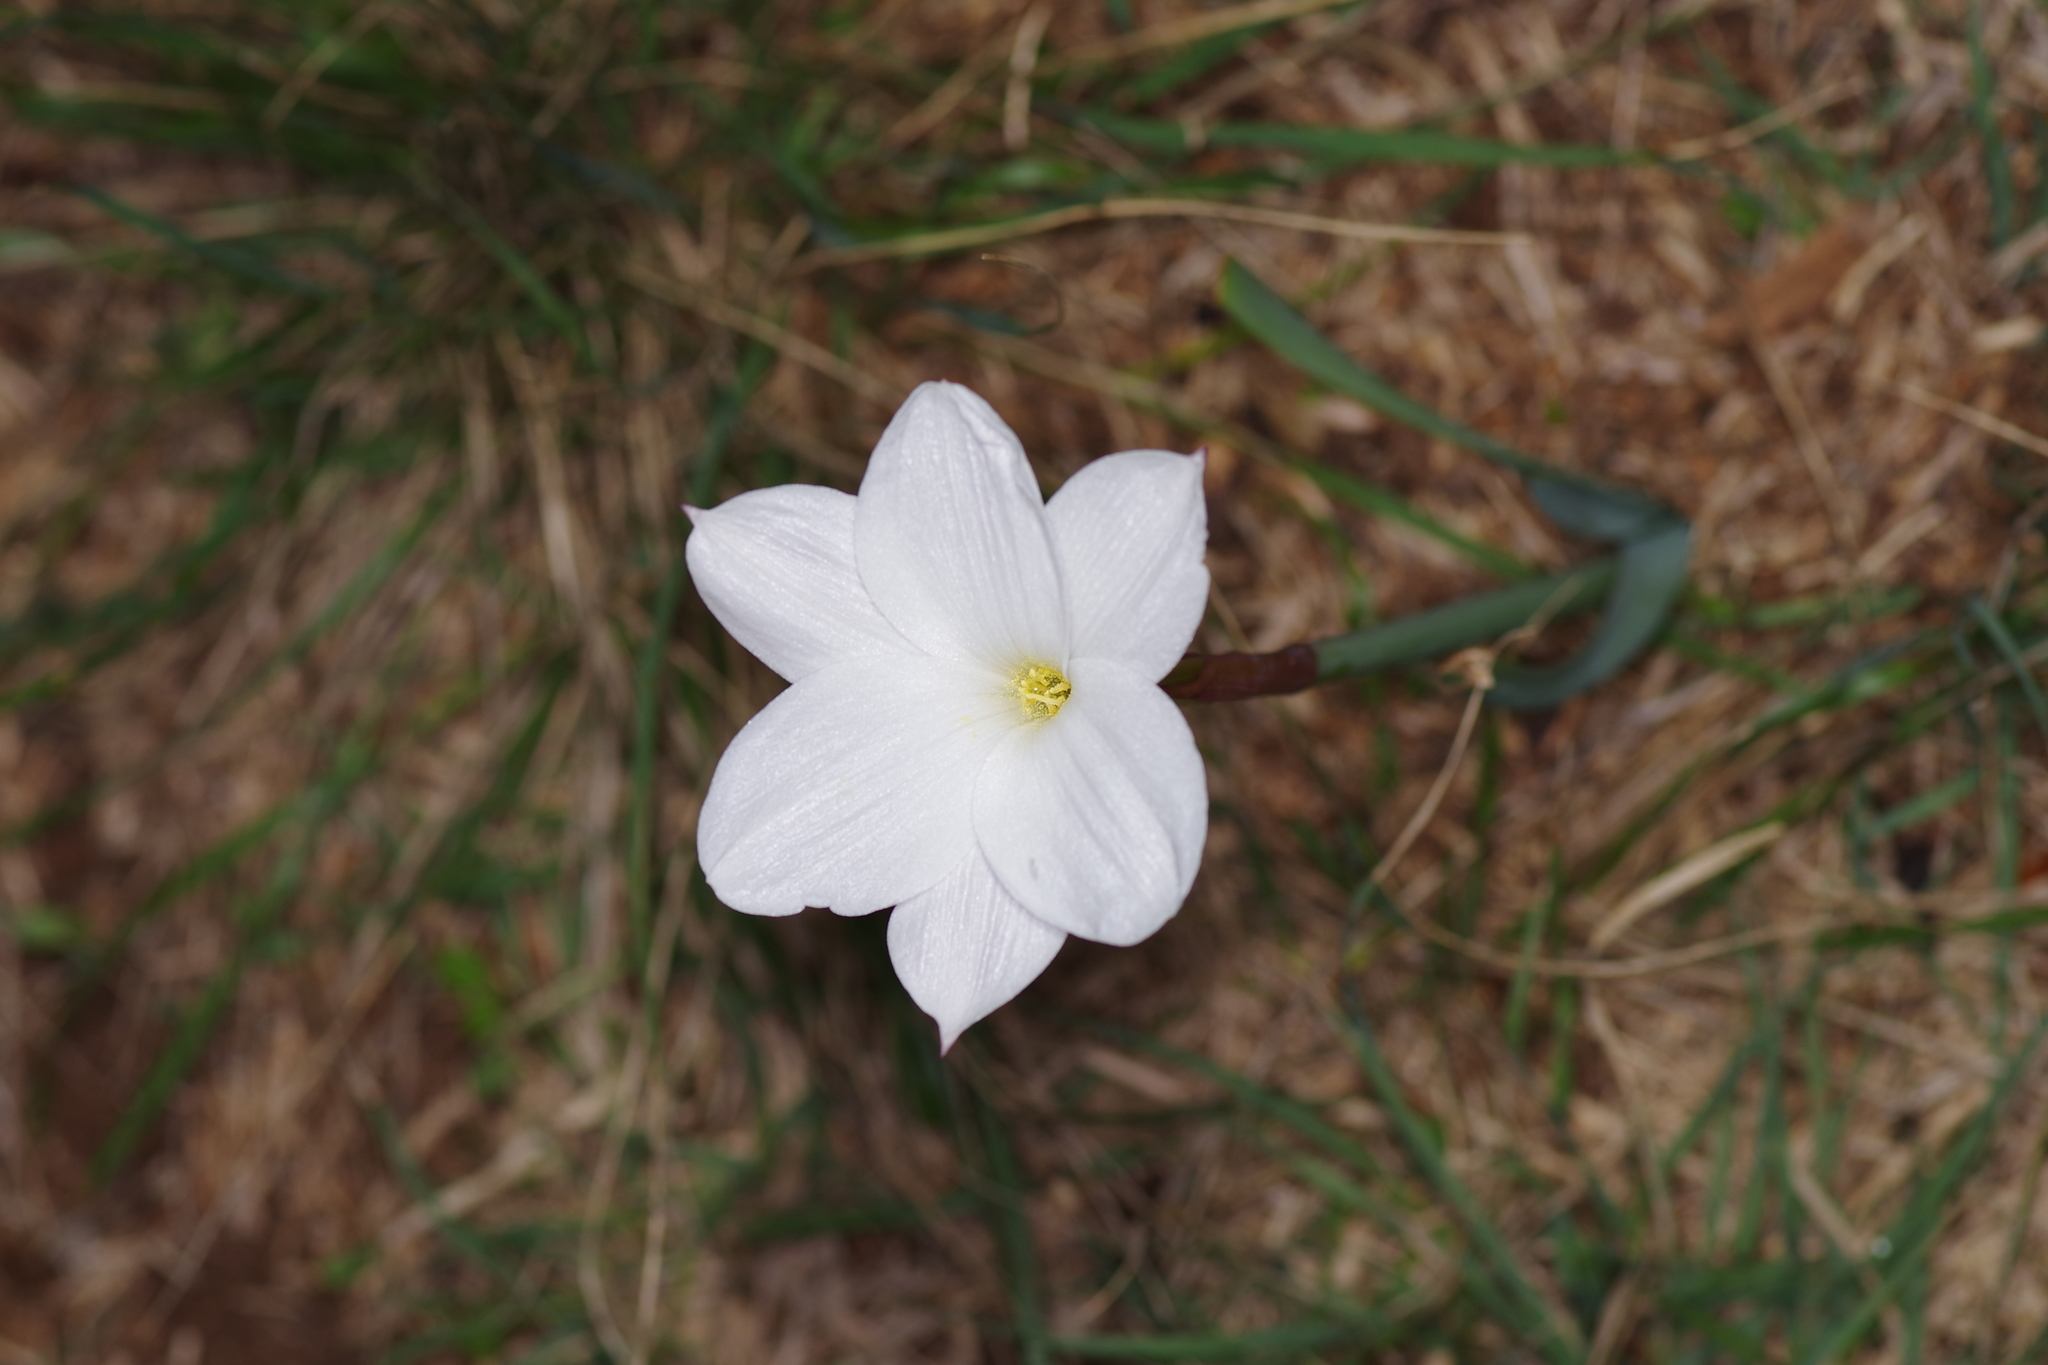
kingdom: Plantae
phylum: Tracheophyta
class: Liliopsida
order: Asparagales
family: Amaryllidaceae
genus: Zephyranthes
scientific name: Zephyranthes drummondii
